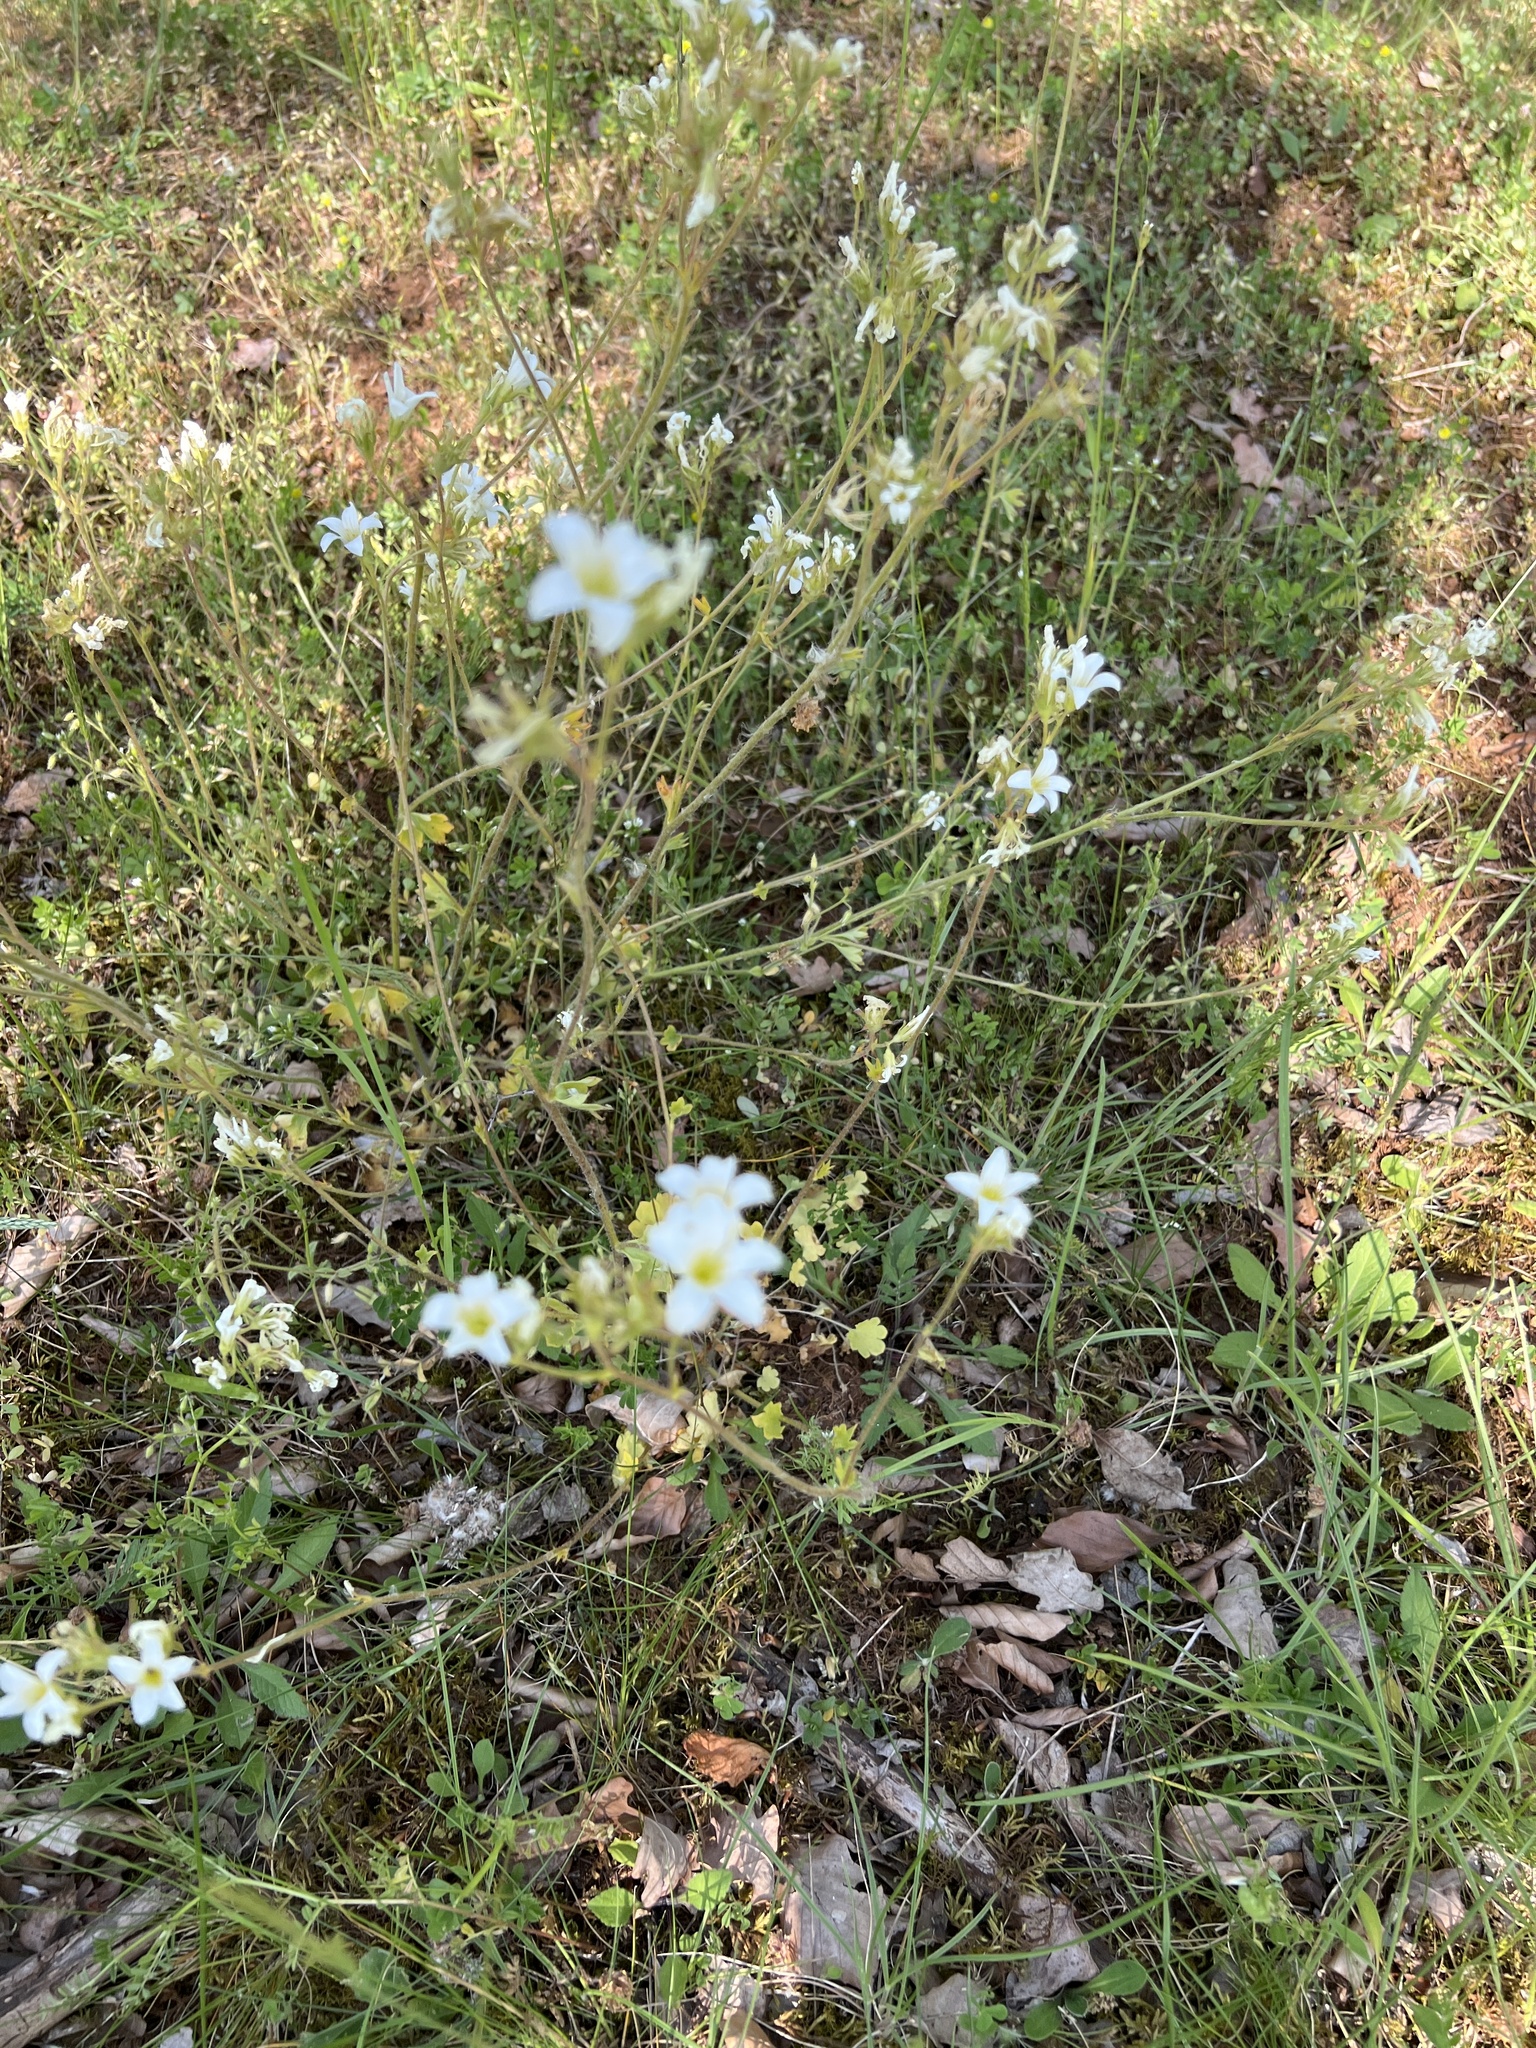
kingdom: Plantae
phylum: Tracheophyta
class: Magnoliopsida
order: Saxifragales
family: Saxifragaceae
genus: Saxifraga
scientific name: Saxifraga granulata
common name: Meadow saxifrage
